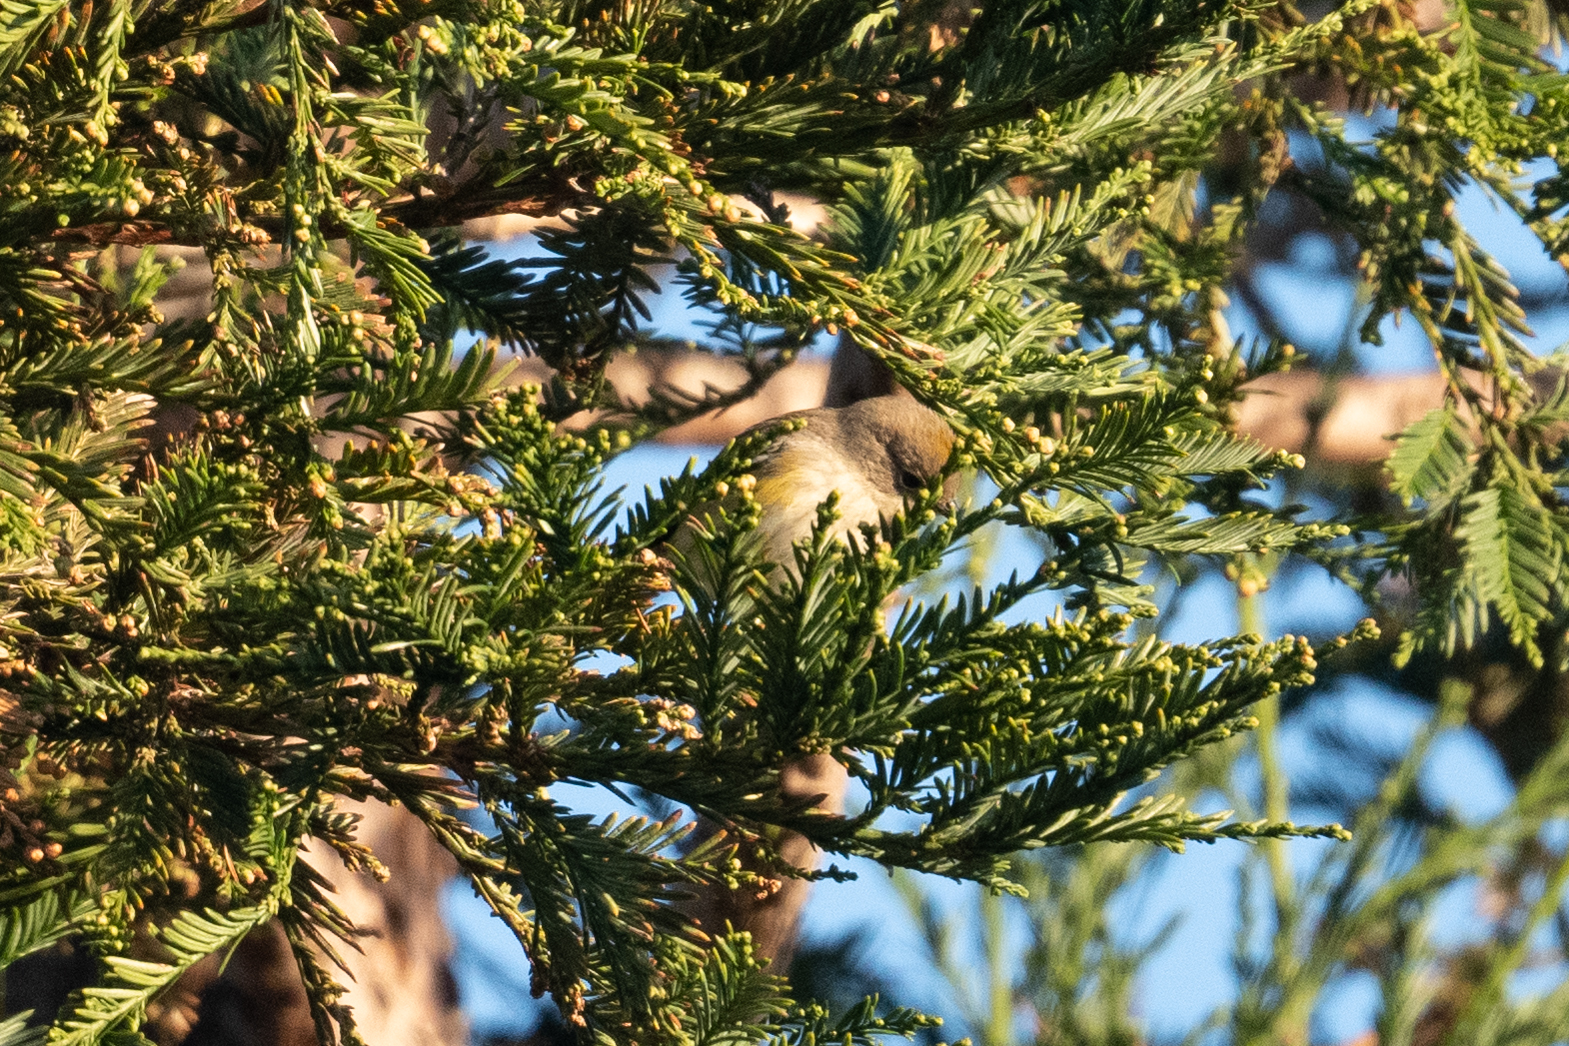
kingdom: Animalia
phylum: Chordata
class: Aves
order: Passeriformes
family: Parulidae
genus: Setophaga
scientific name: Setophaga coronata
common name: Myrtle warbler
